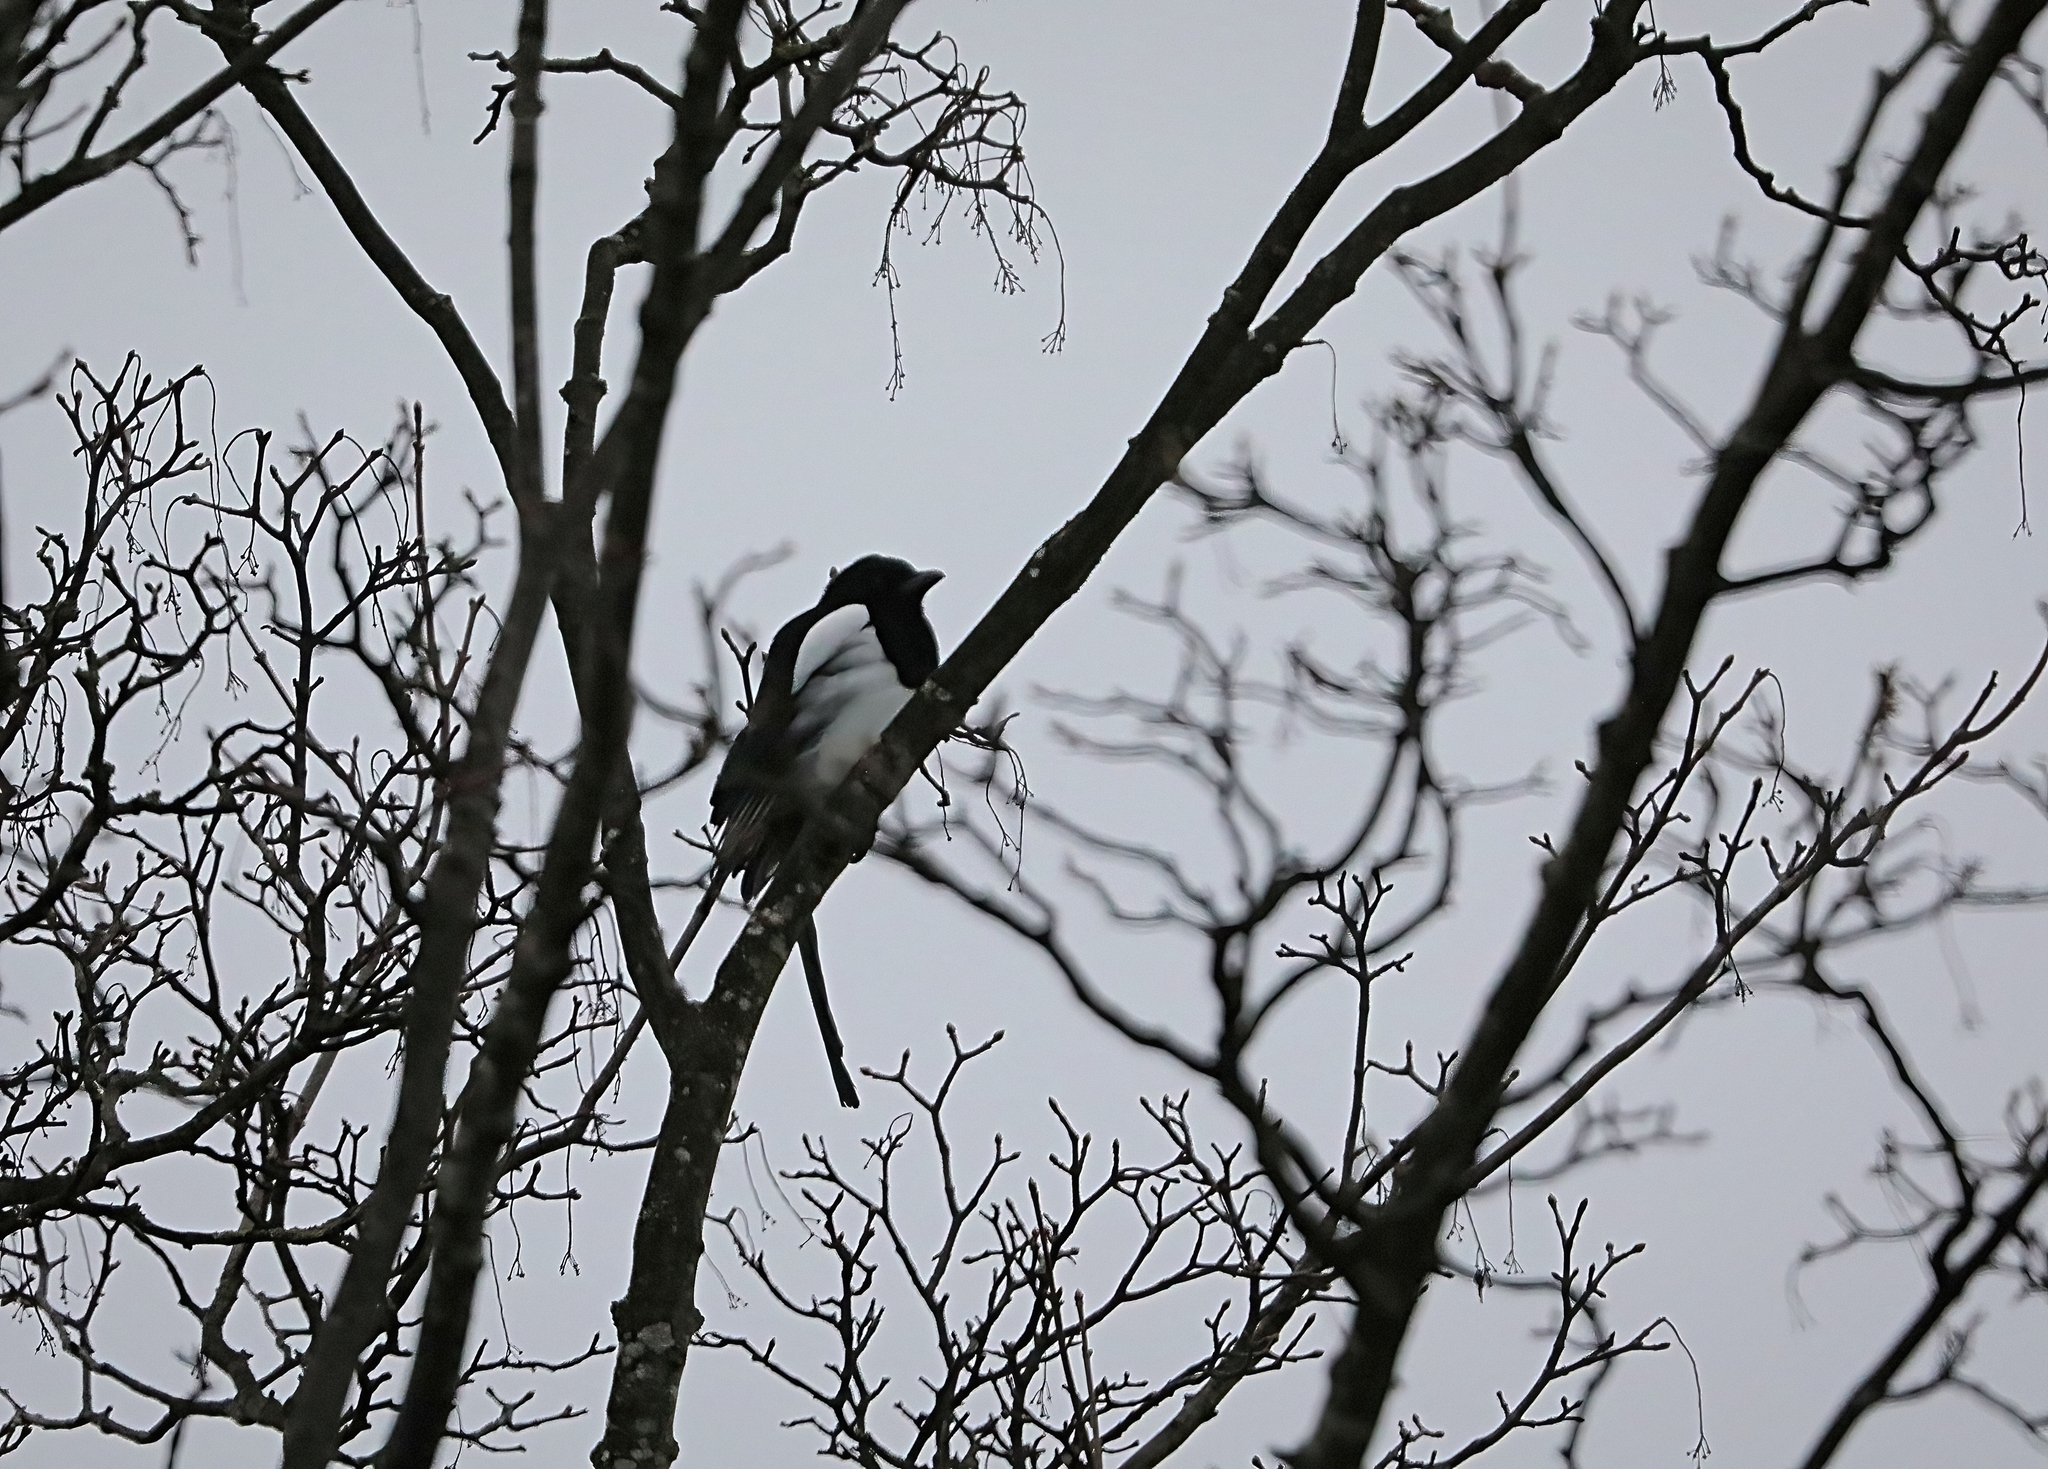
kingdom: Animalia
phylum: Chordata
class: Aves
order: Passeriformes
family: Corvidae
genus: Pica
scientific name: Pica pica
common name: Eurasian magpie
